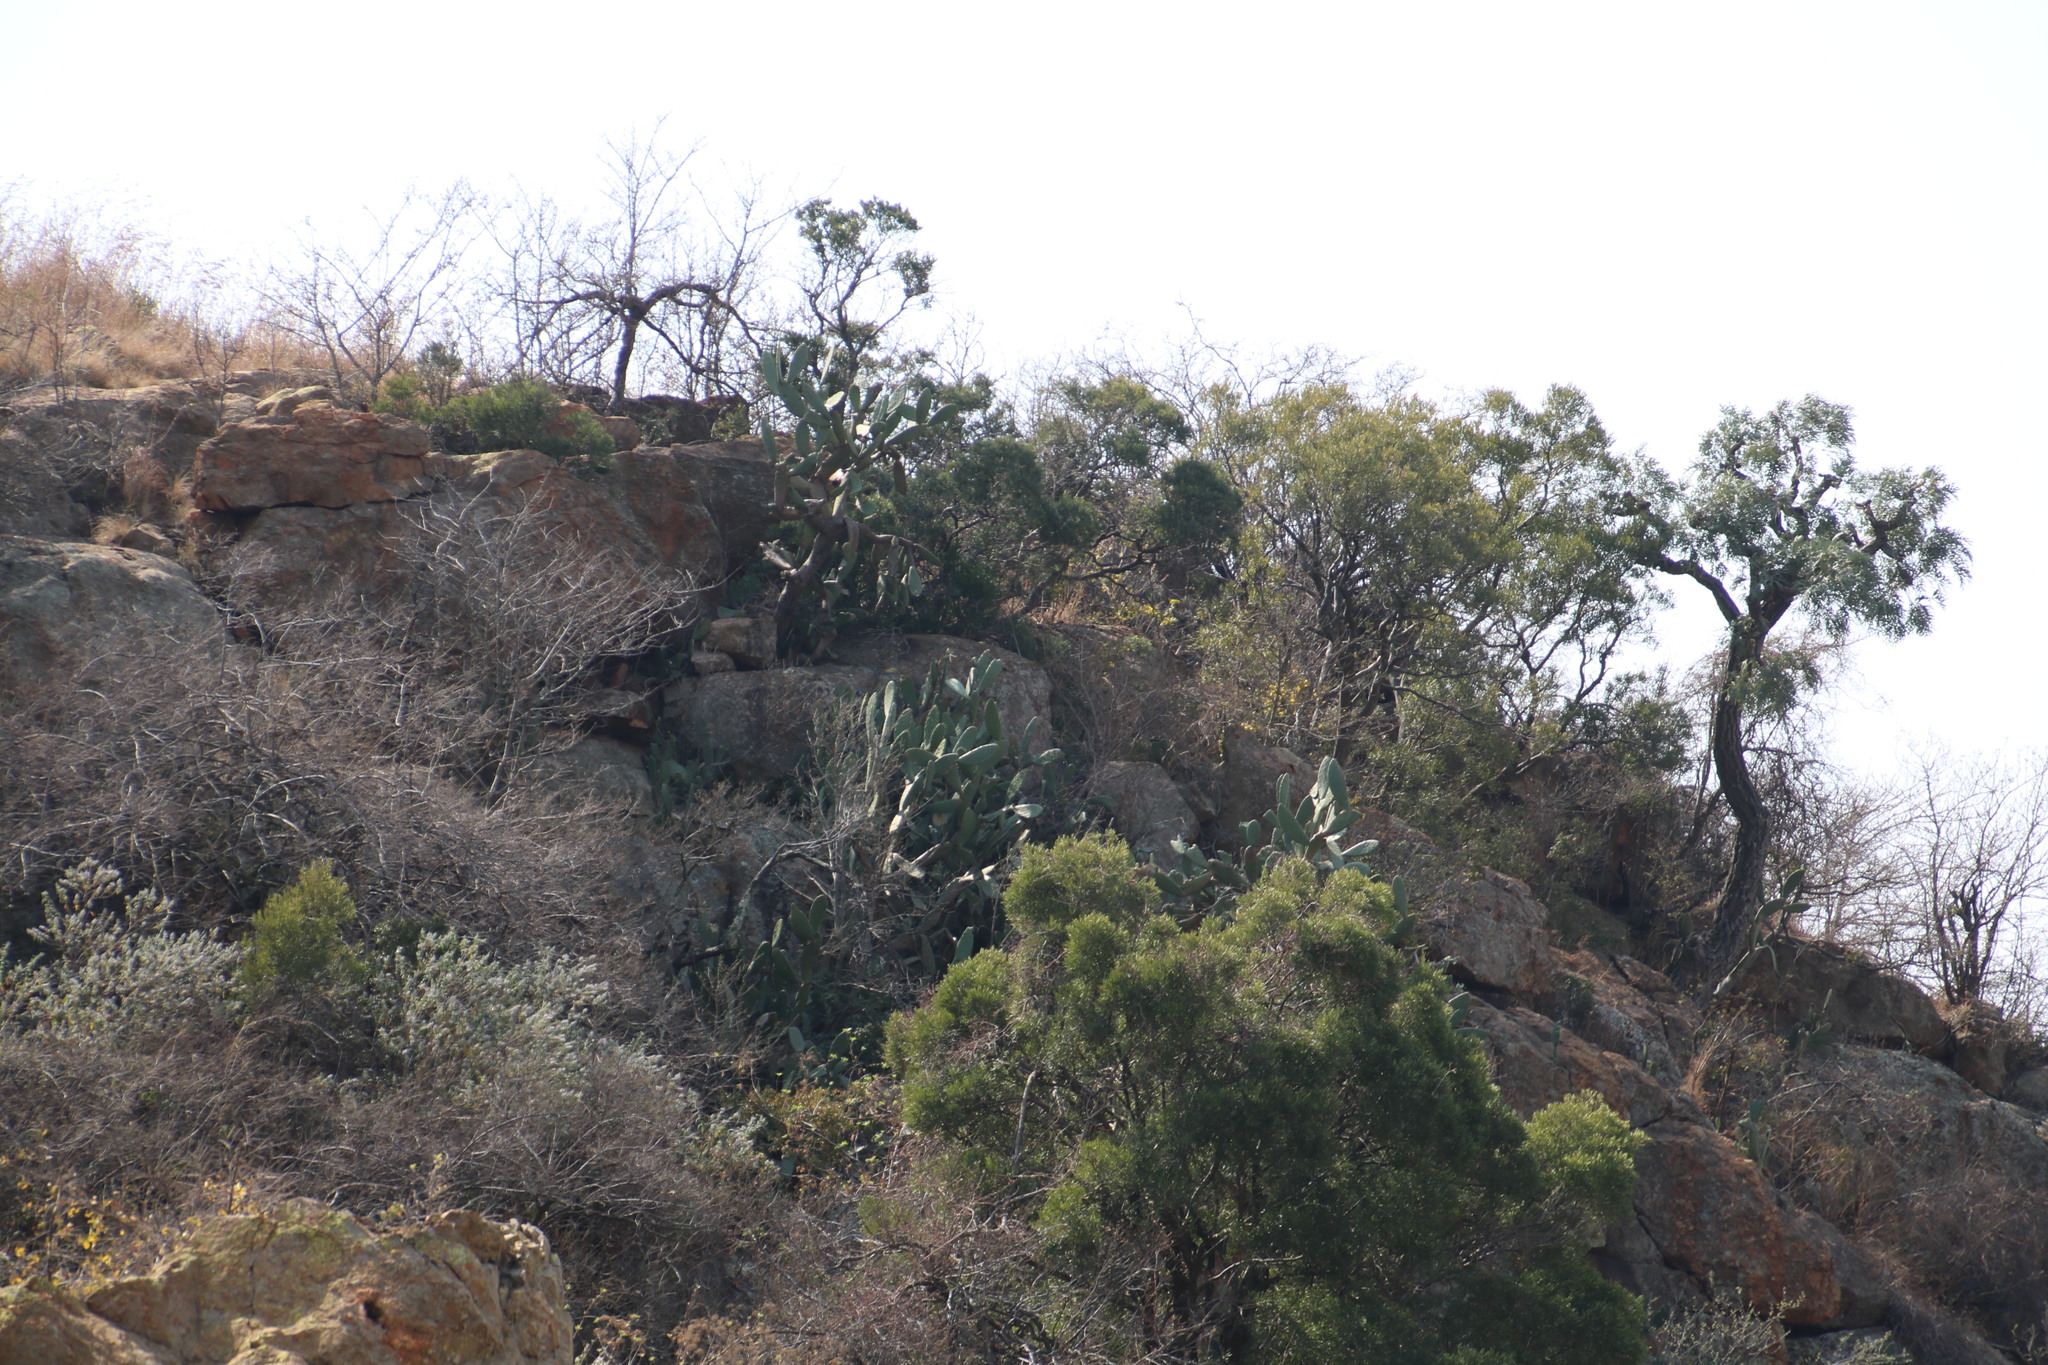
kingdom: Plantae
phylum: Tracheophyta
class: Magnoliopsida
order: Caryophyllales
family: Cactaceae
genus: Opuntia
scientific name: Opuntia ficus-indica
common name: Barbary fig
